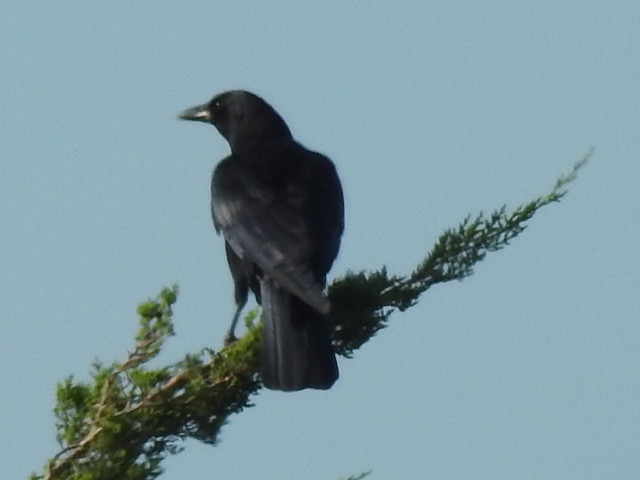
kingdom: Animalia
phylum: Chordata
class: Aves
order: Passeriformes
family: Corvidae
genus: Corvus
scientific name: Corvus brachyrhynchos
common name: American crow
